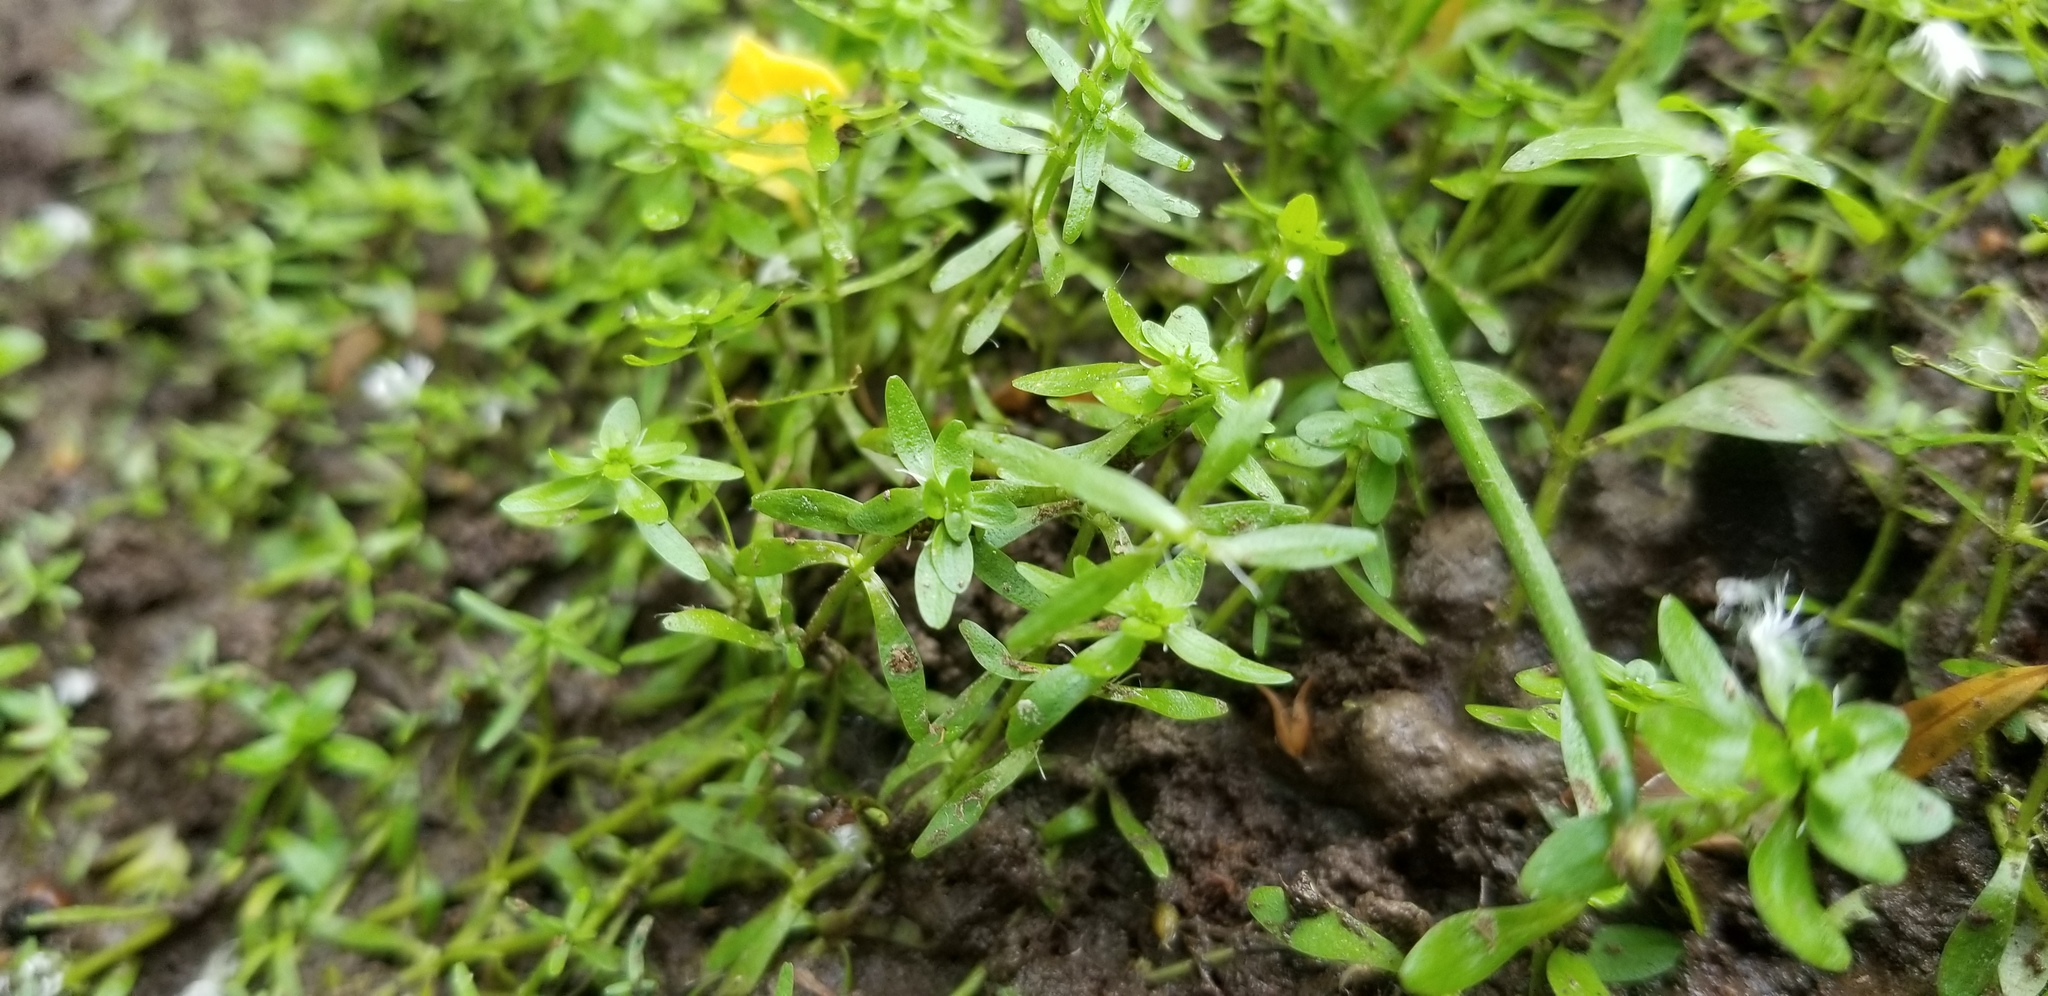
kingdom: Plantae
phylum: Tracheophyta
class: Magnoliopsida
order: Lamiales
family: Plantaginaceae
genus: Callitriche
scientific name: Callitriche heterophylla
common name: Two-headed water-starwort
